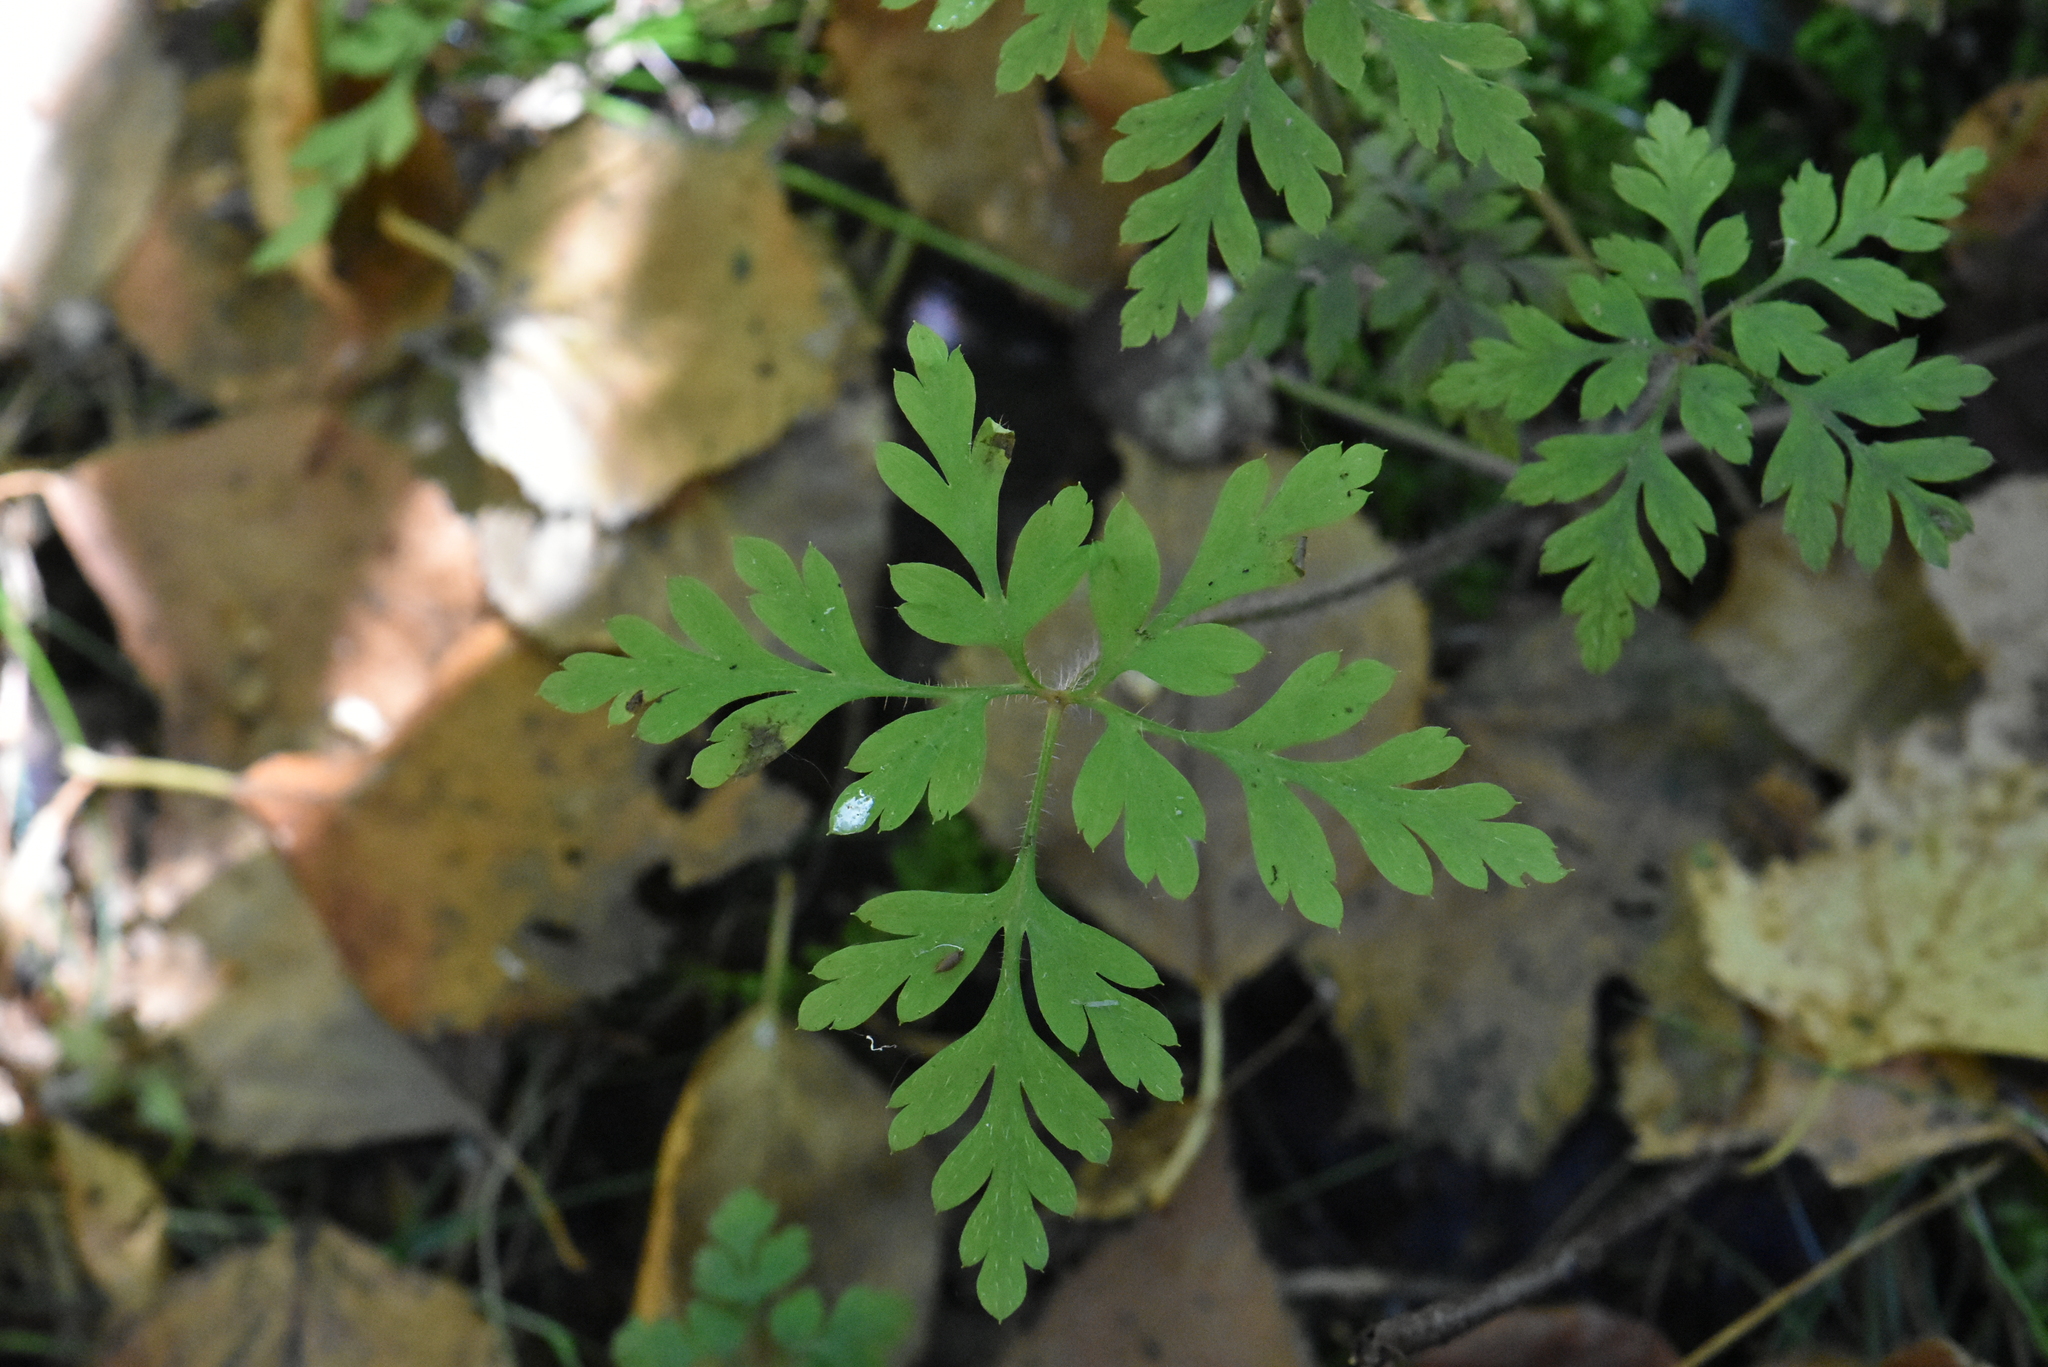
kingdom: Plantae
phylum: Tracheophyta
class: Magnoliopsida
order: Geraniales
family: Geraniaceae
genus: Geranium
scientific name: Geranium robertianum
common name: Herb-robert
